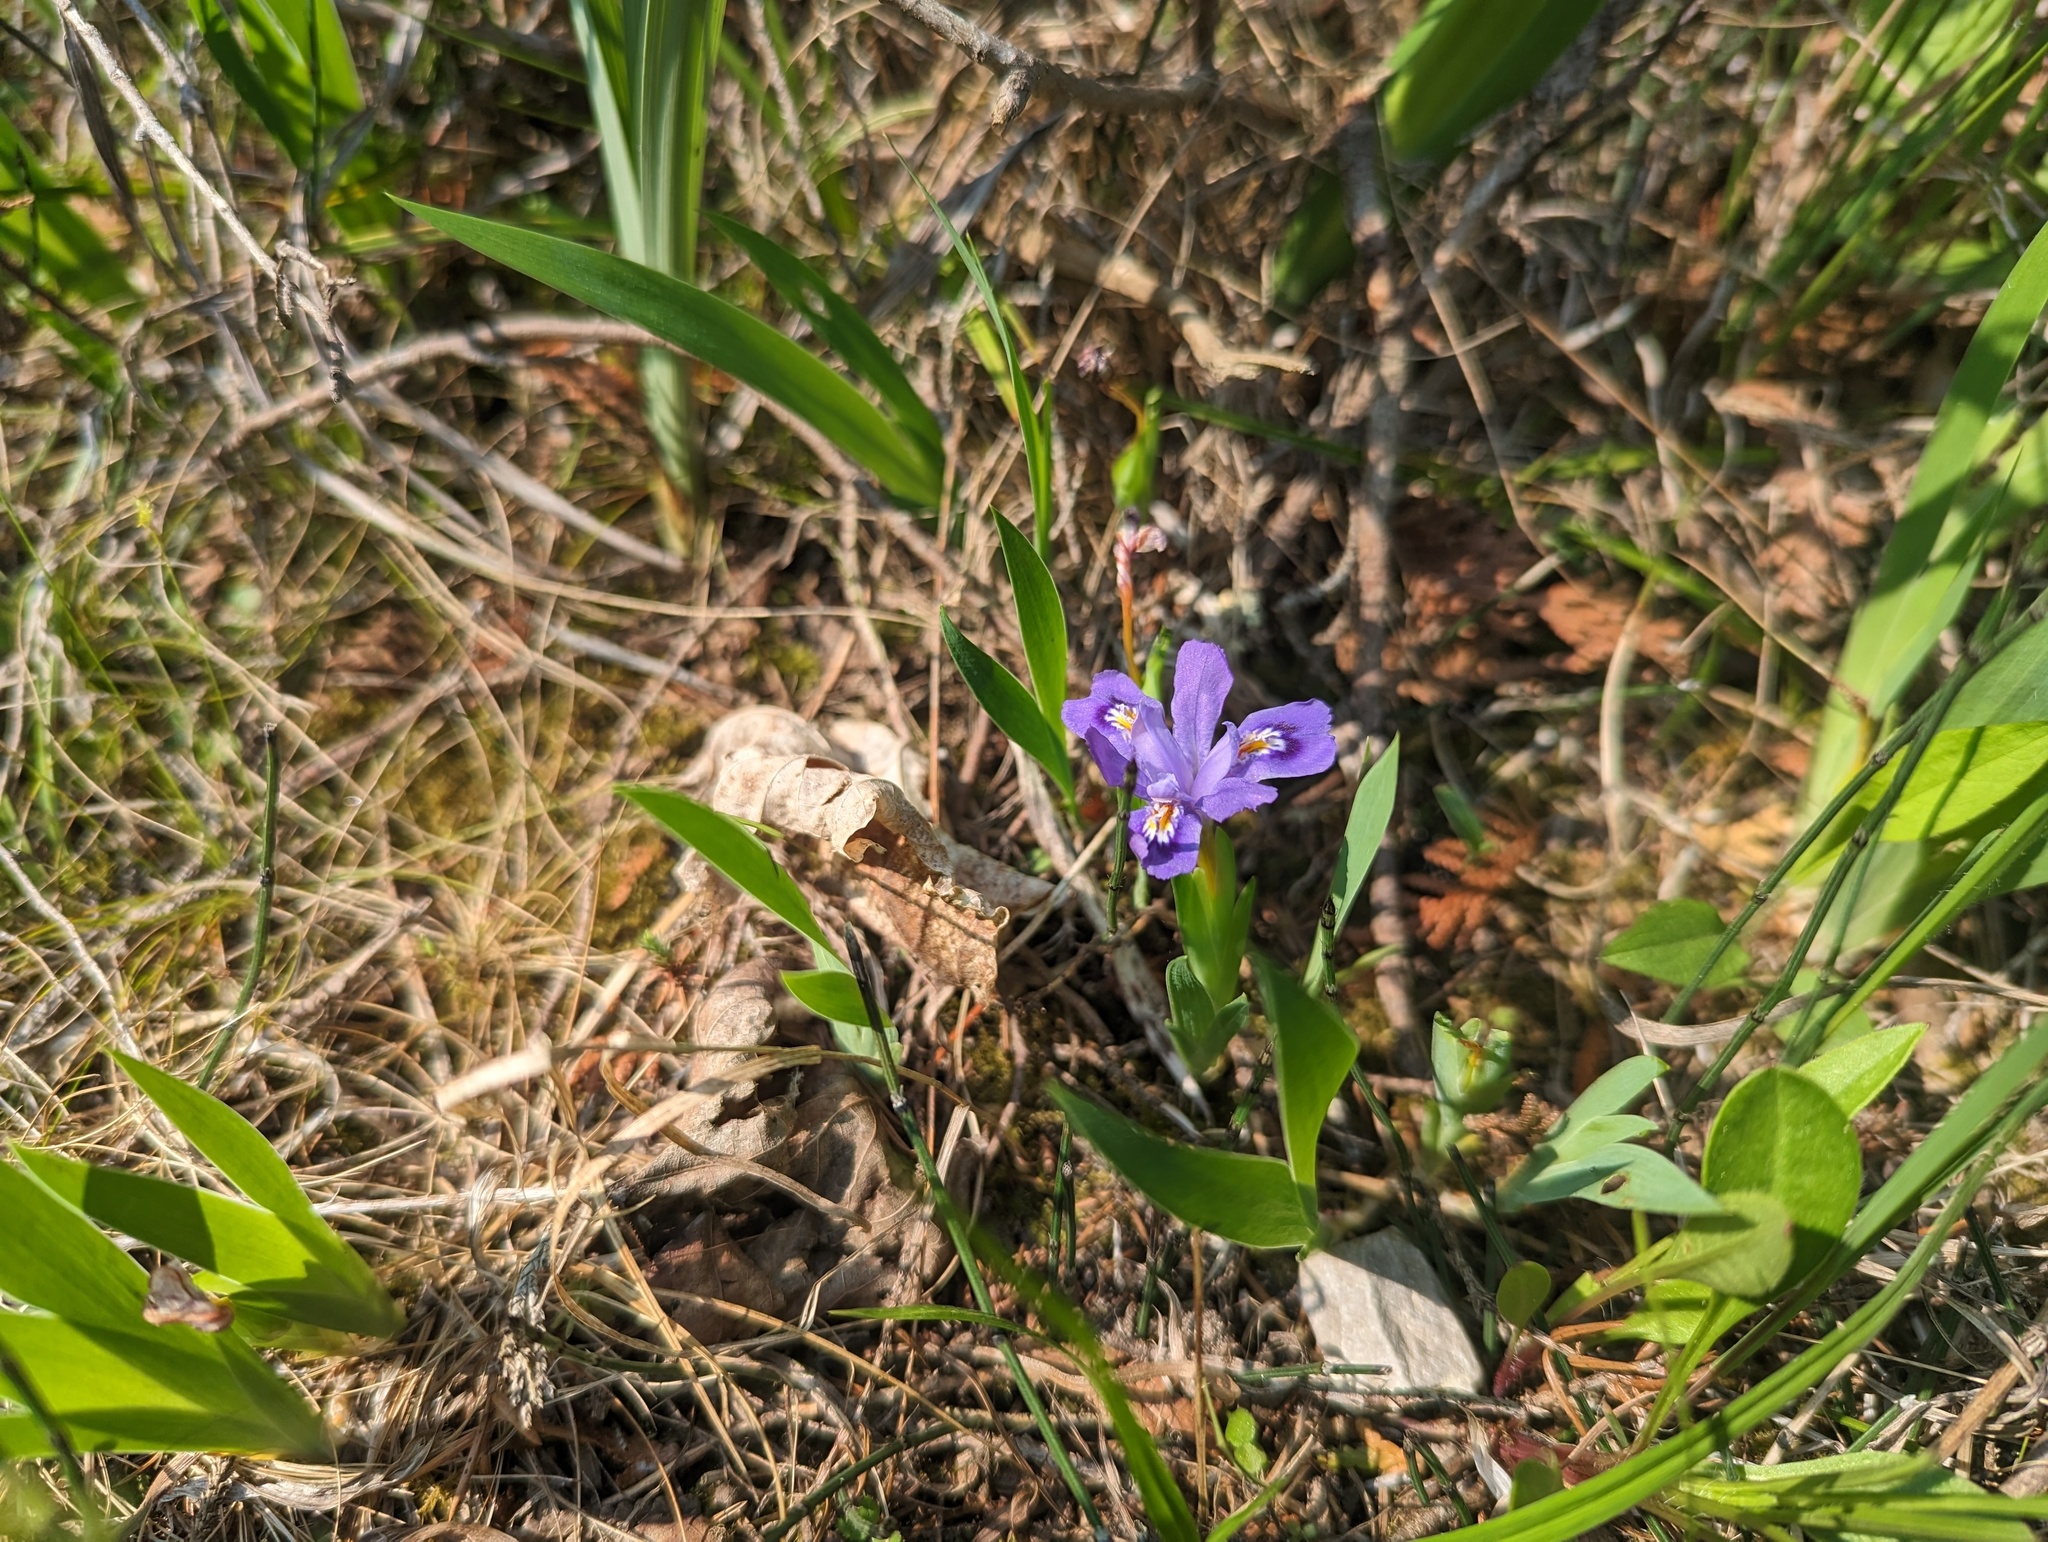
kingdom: Plantae
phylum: Tracheophyta
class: Liliopsida
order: Asparagales
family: Iridaceae
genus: Iris
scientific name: Iris lacustris
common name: Dwarf lake iris
